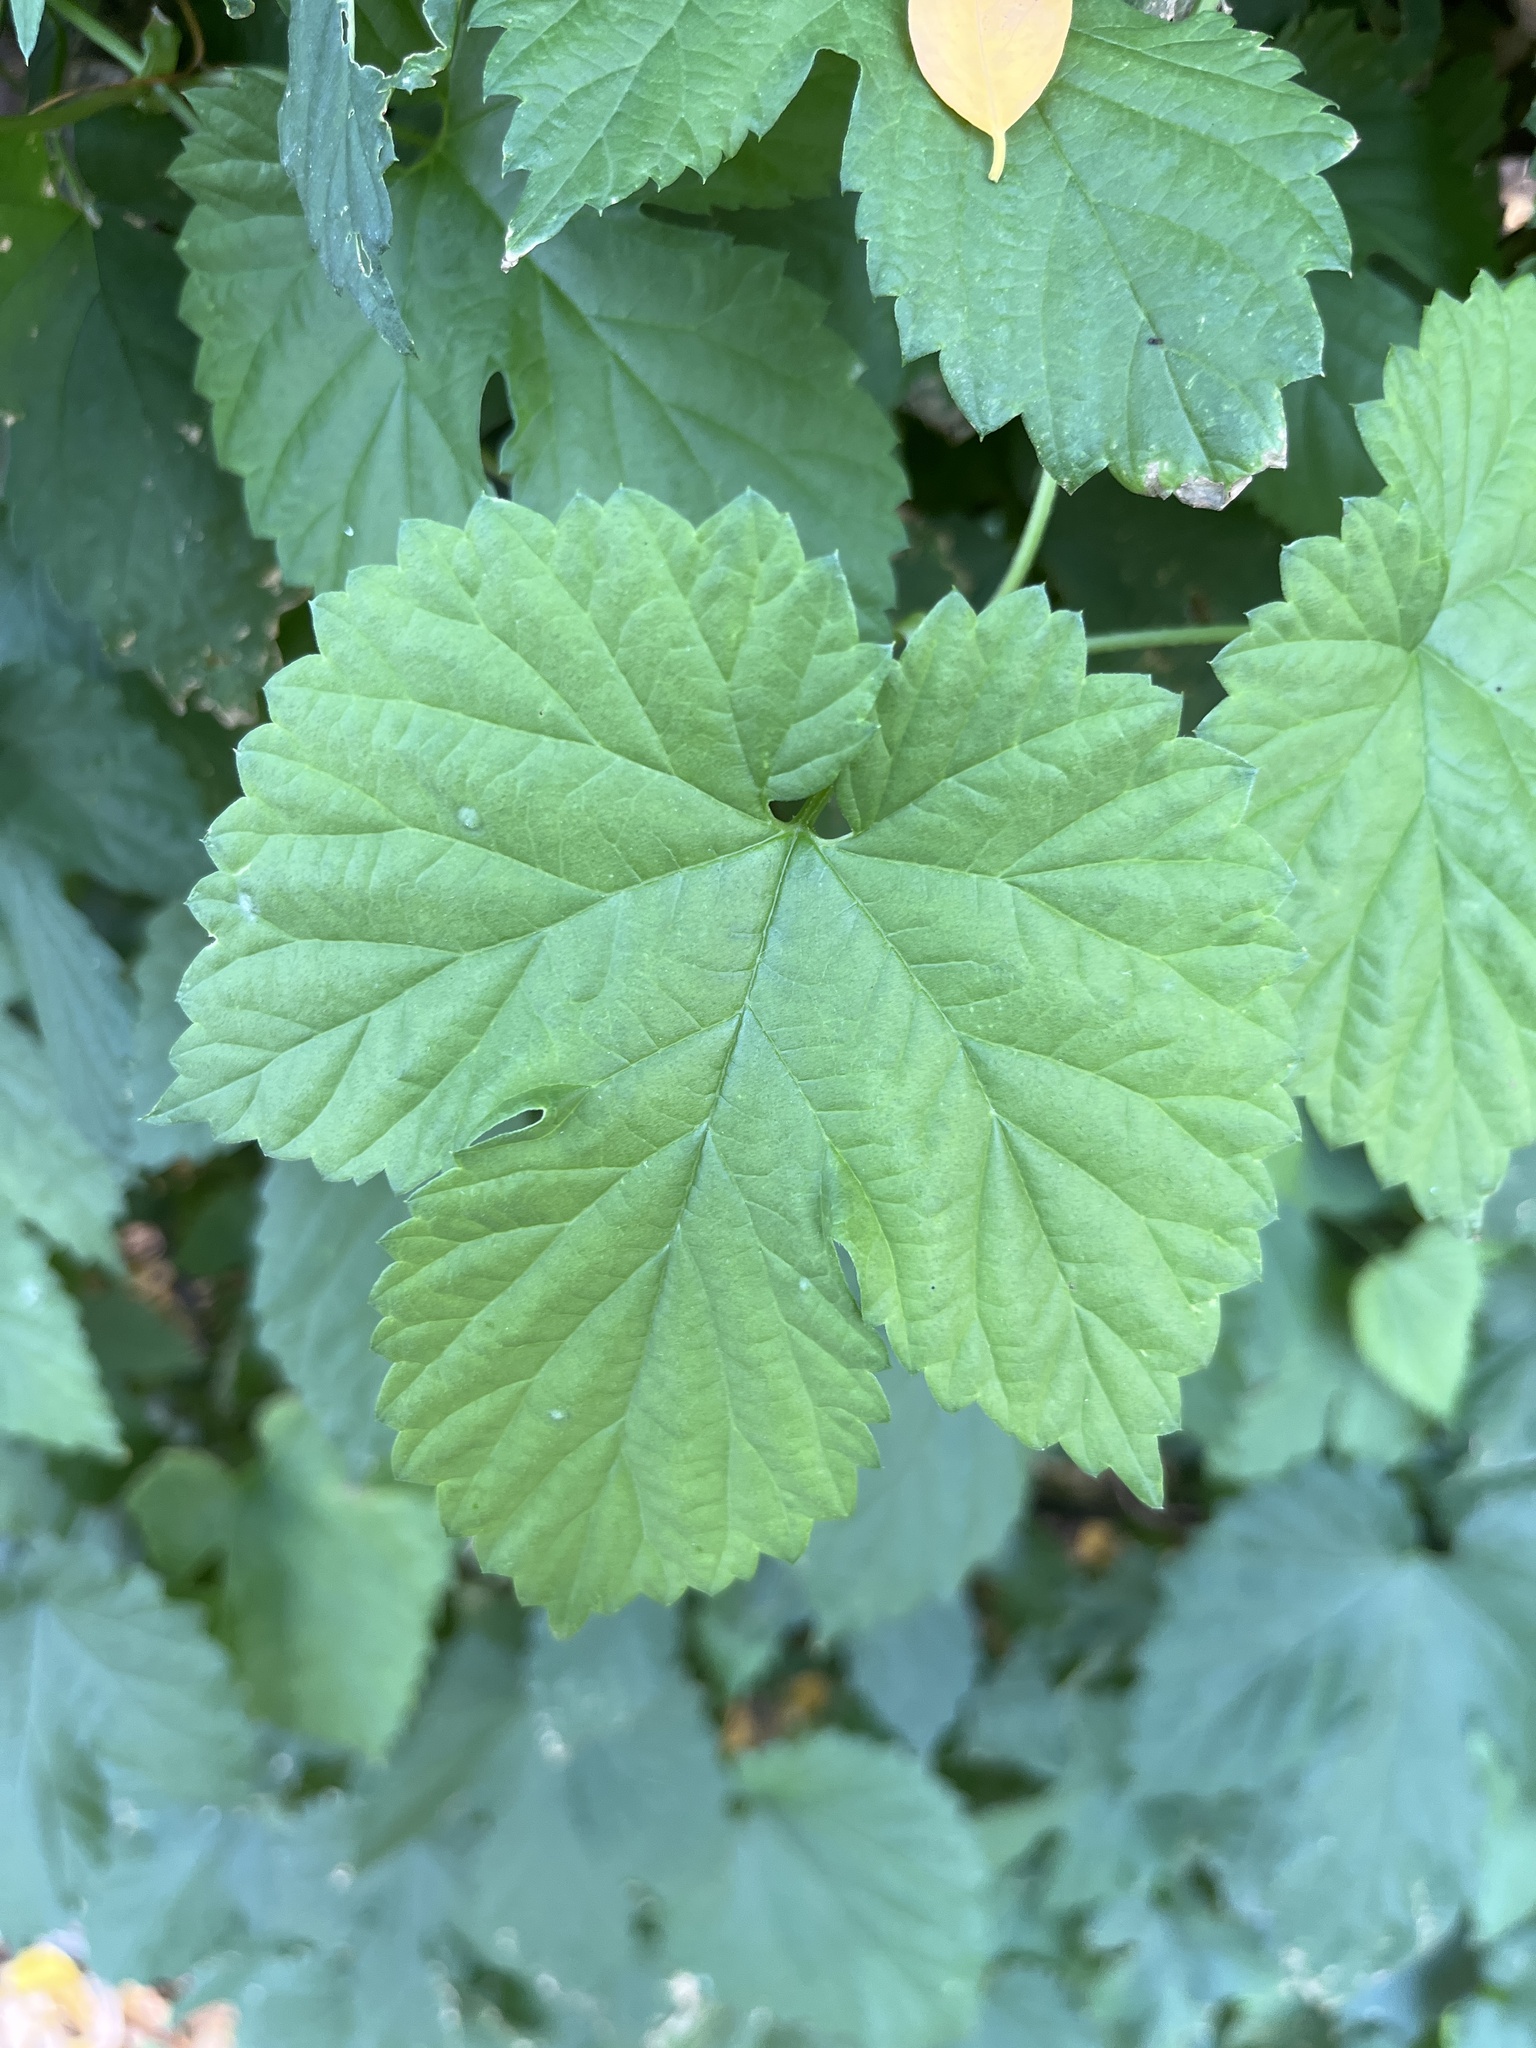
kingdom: Plantae
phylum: Tracheophyta
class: Magnoliopsida
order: Rosales
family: Cannabaceae
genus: Humulus
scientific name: Humulus lupulus
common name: Hop
